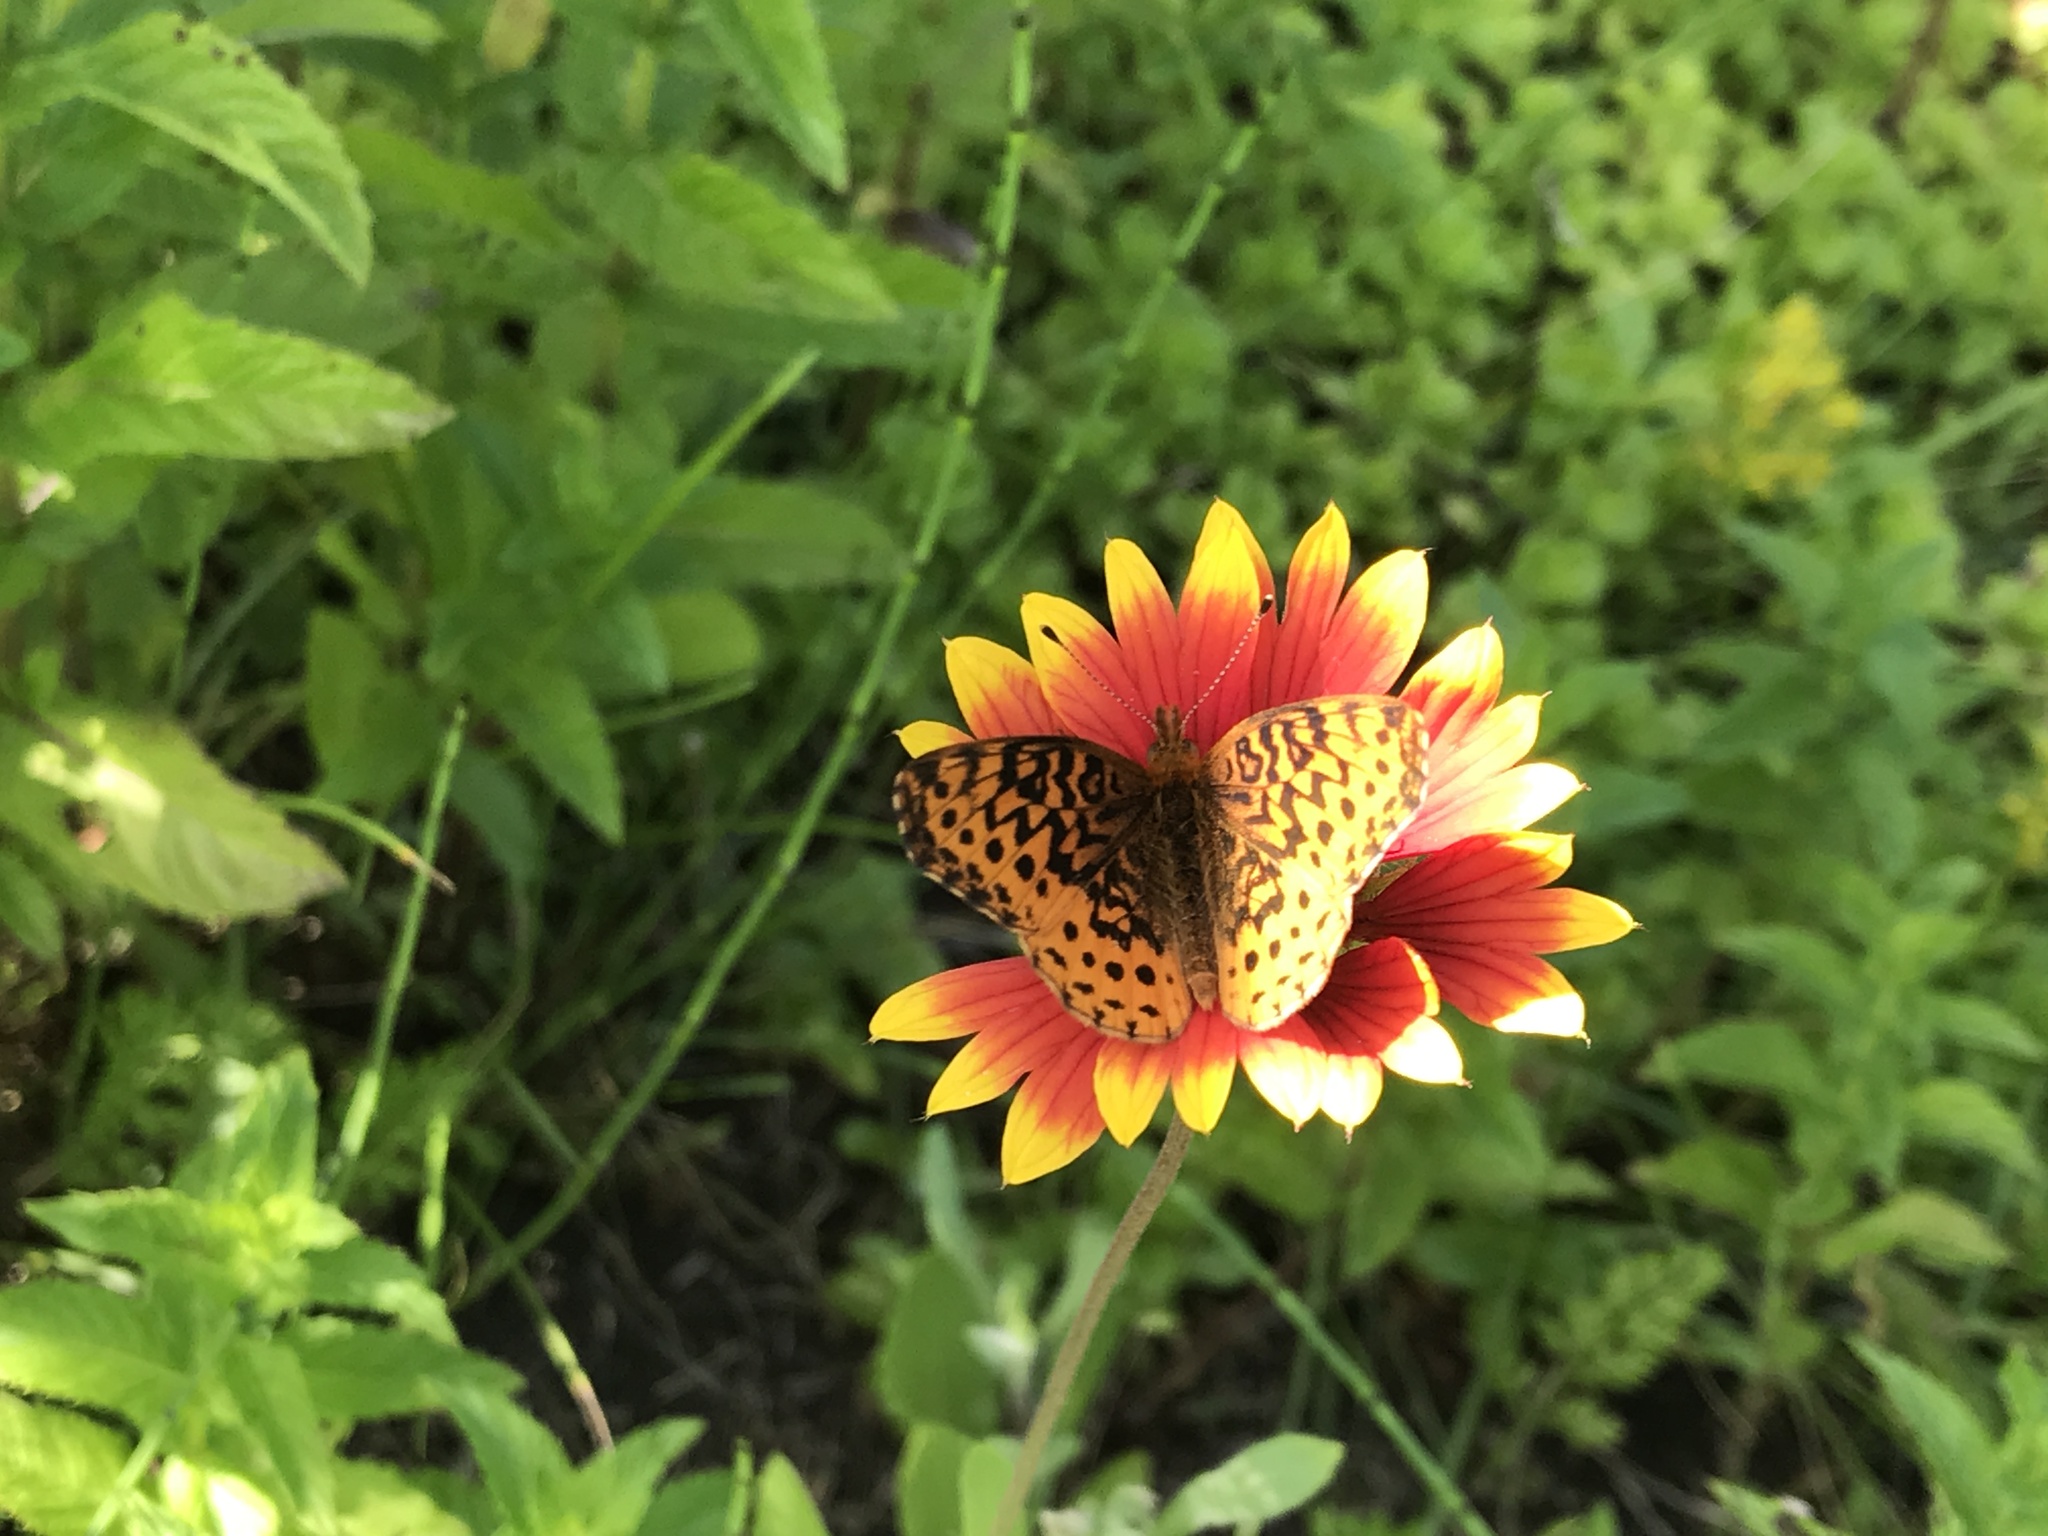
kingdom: Animalia
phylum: Arthropoda
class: Insecta
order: Lepidoptera
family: Nymphalidae
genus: Clossiana
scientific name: Clossiana toddi
